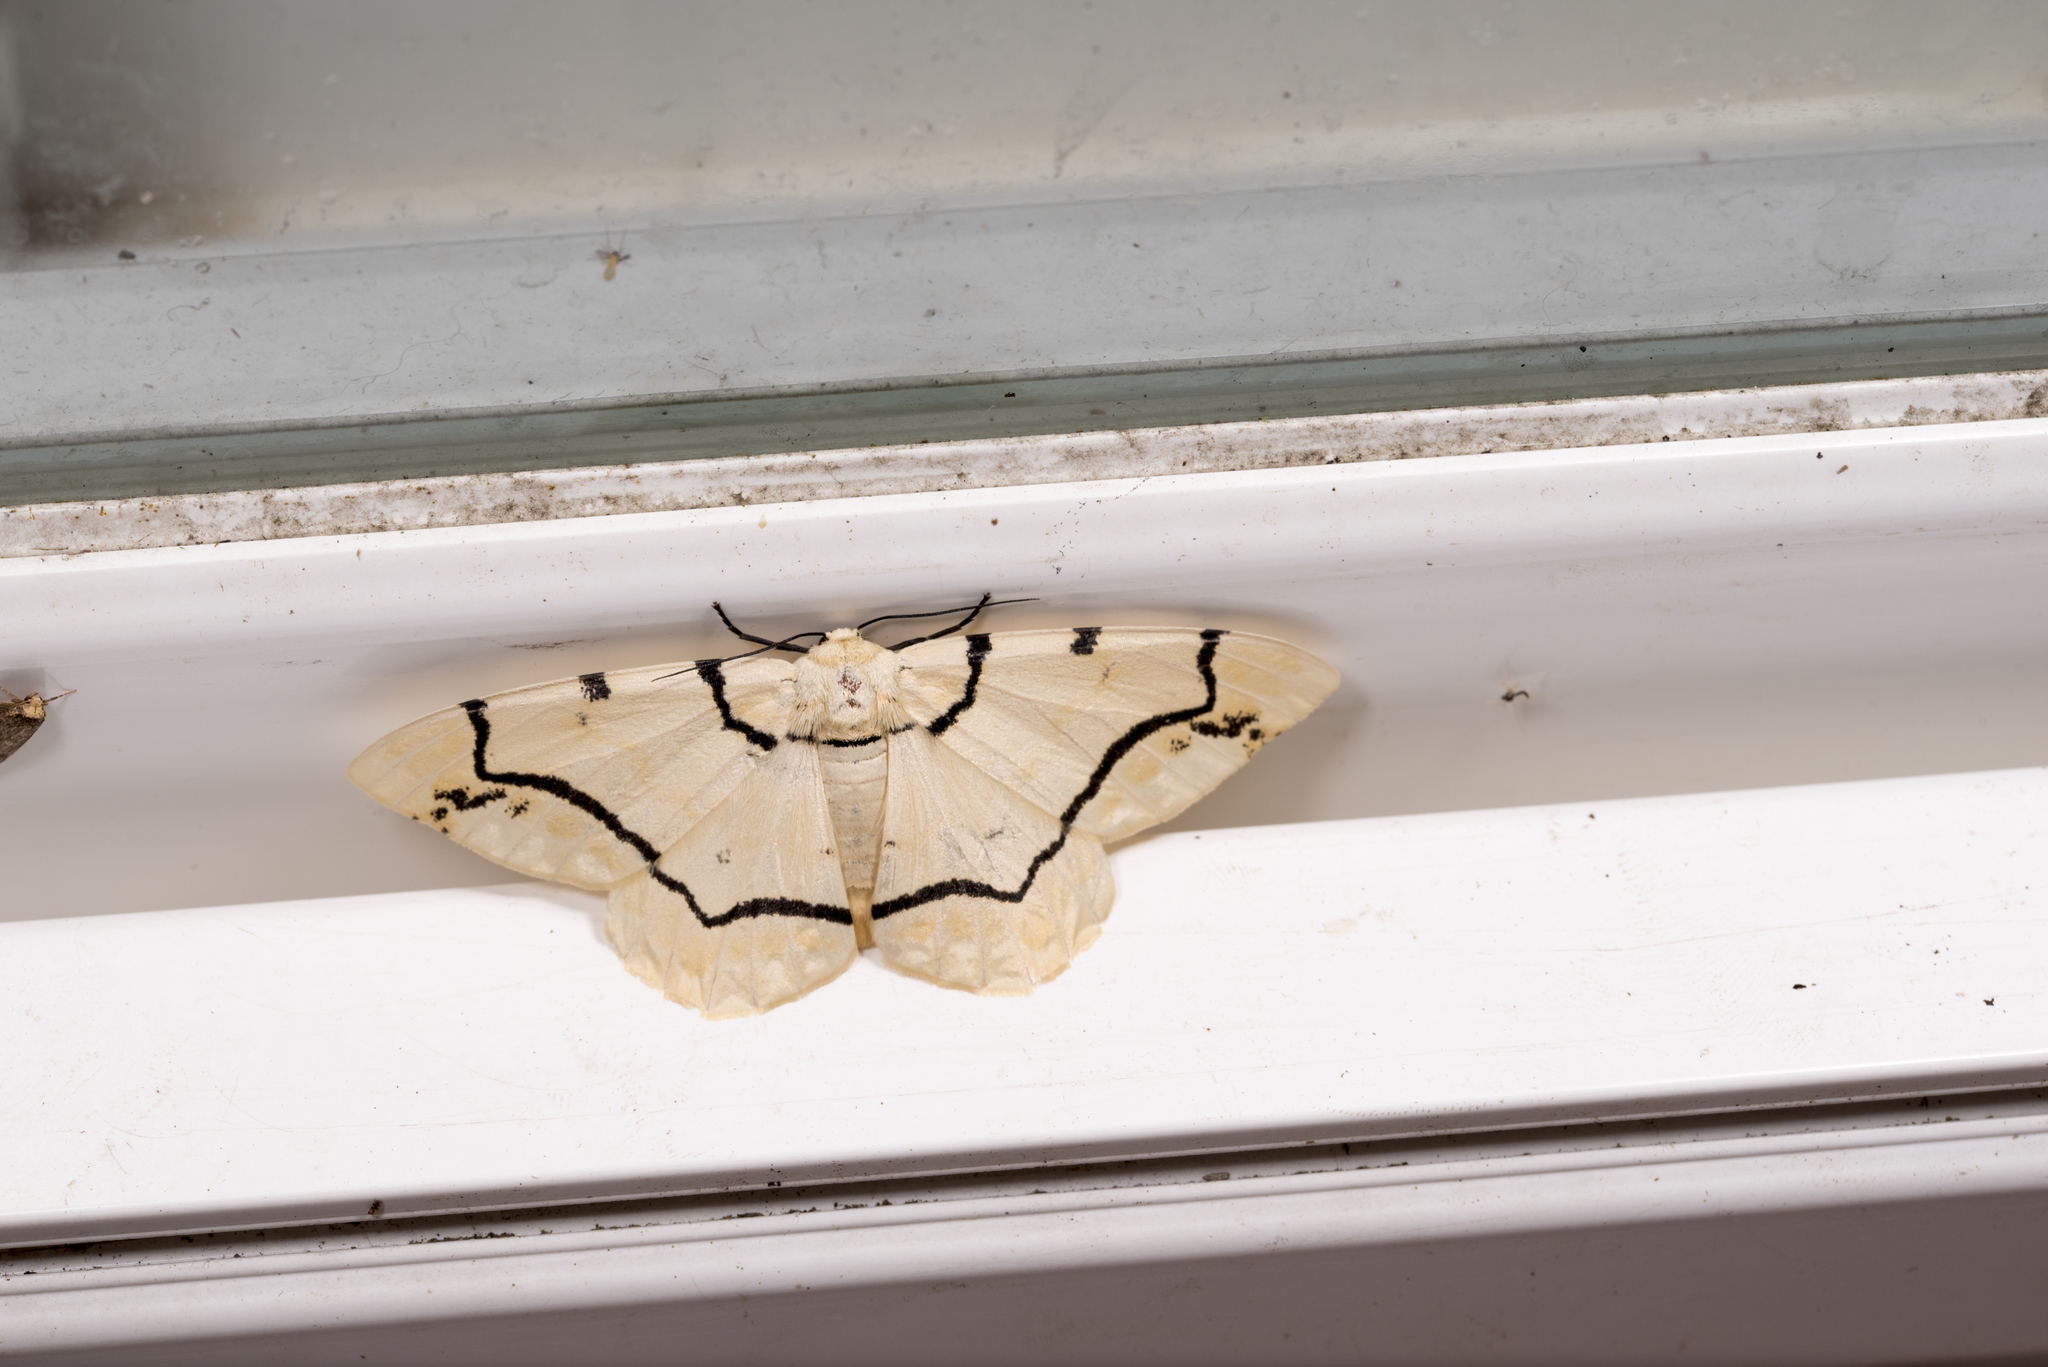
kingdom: Animalia
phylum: Arthropoda
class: Insecta
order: Lepidoptera
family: Geometridae
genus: Biston
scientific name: Biston perclara
